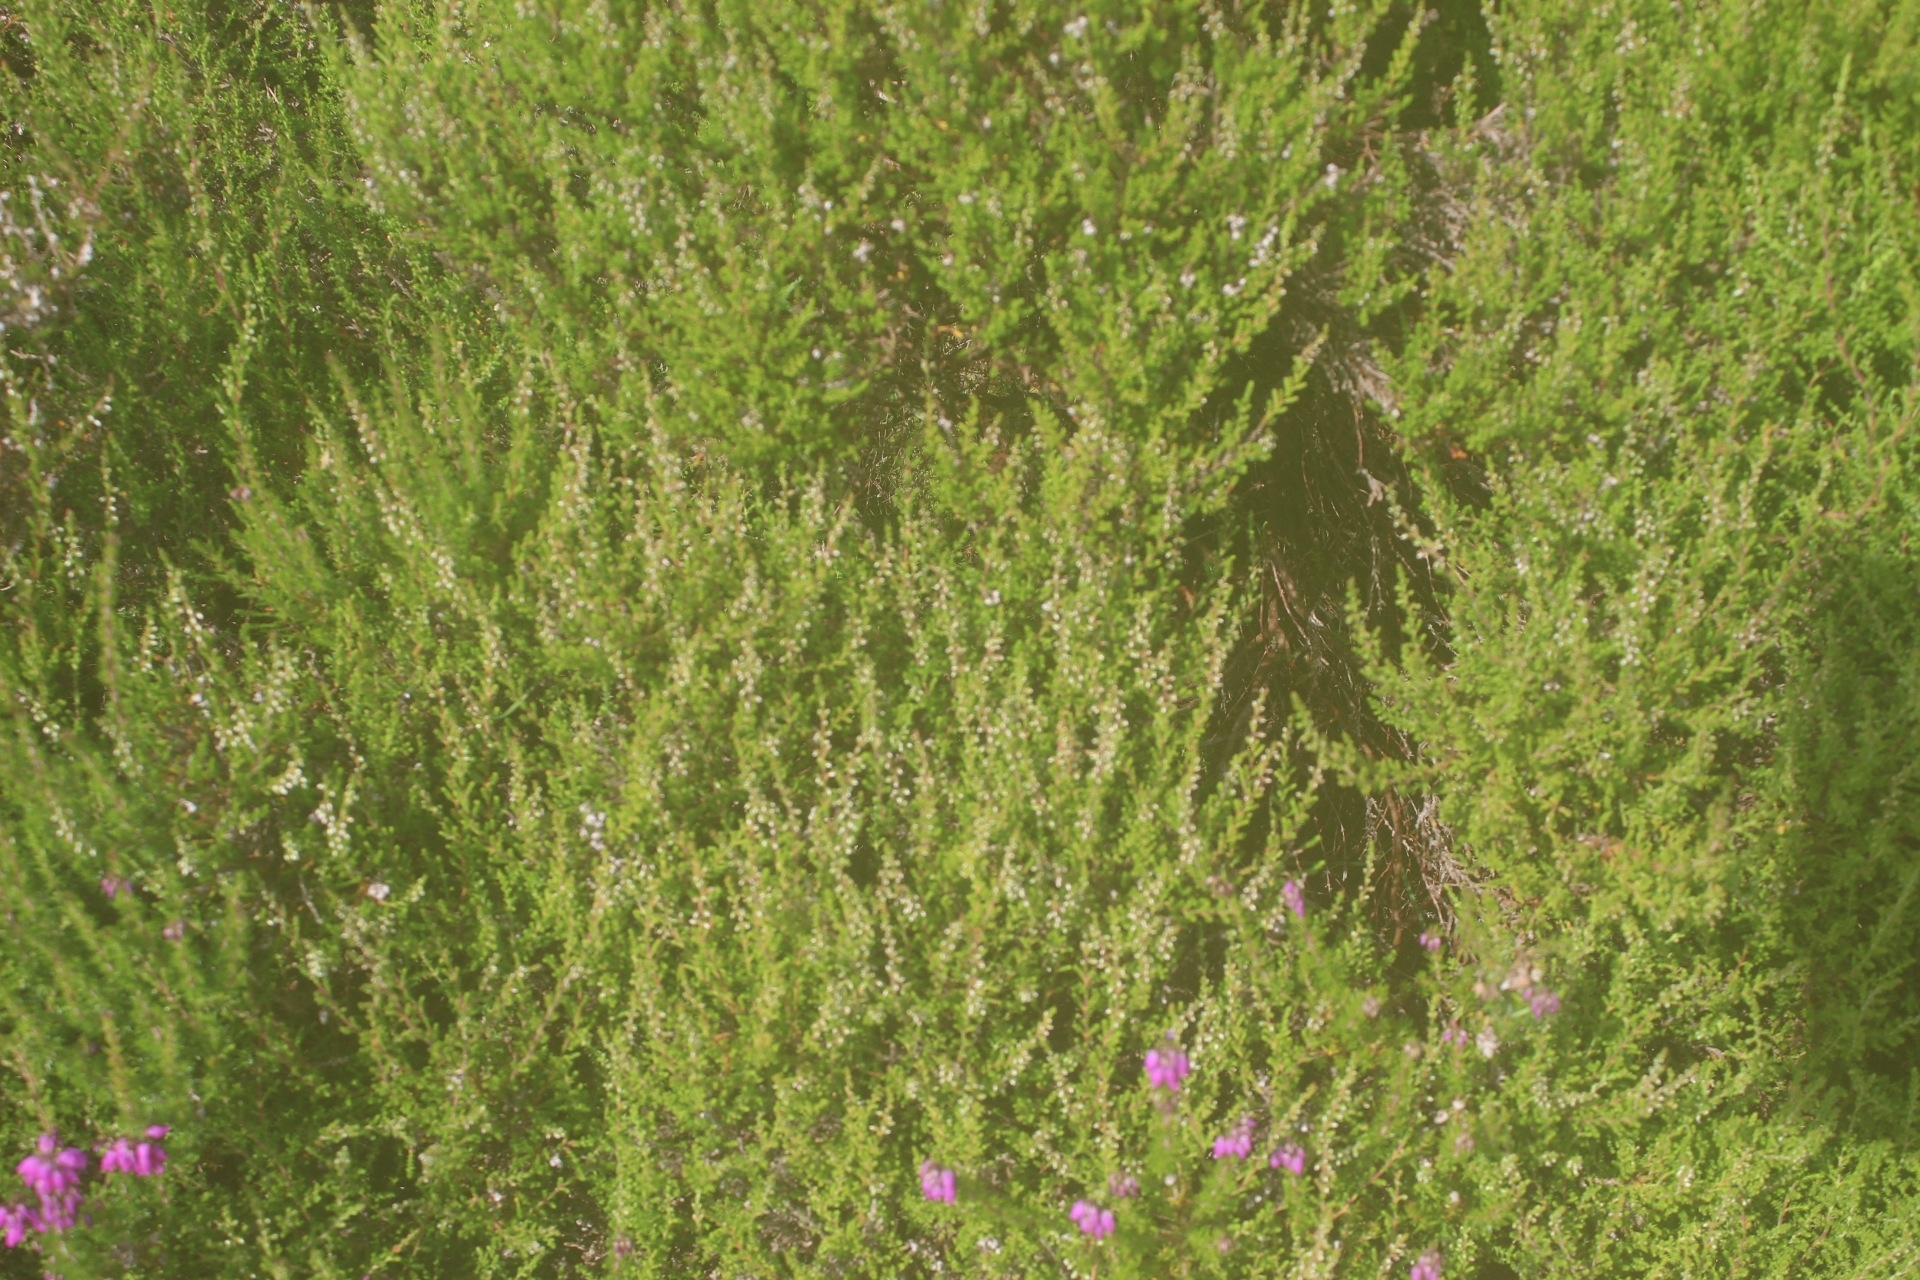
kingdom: Plantae
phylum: Tracheophyta
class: Magnoliopsida
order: Ericales
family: Ericaceae
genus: Calluna
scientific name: Calluna vulgaris
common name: Heather
